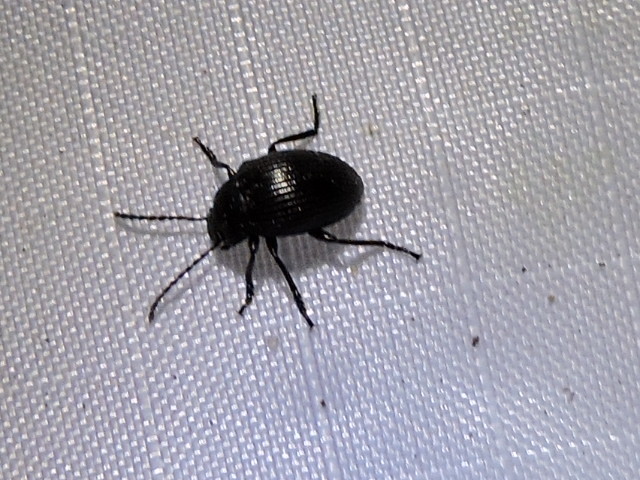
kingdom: Animalia
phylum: Arthropoda
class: Insecta
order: Coleoptera
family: Tenebrionidae
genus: Helops
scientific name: Helops farctus
